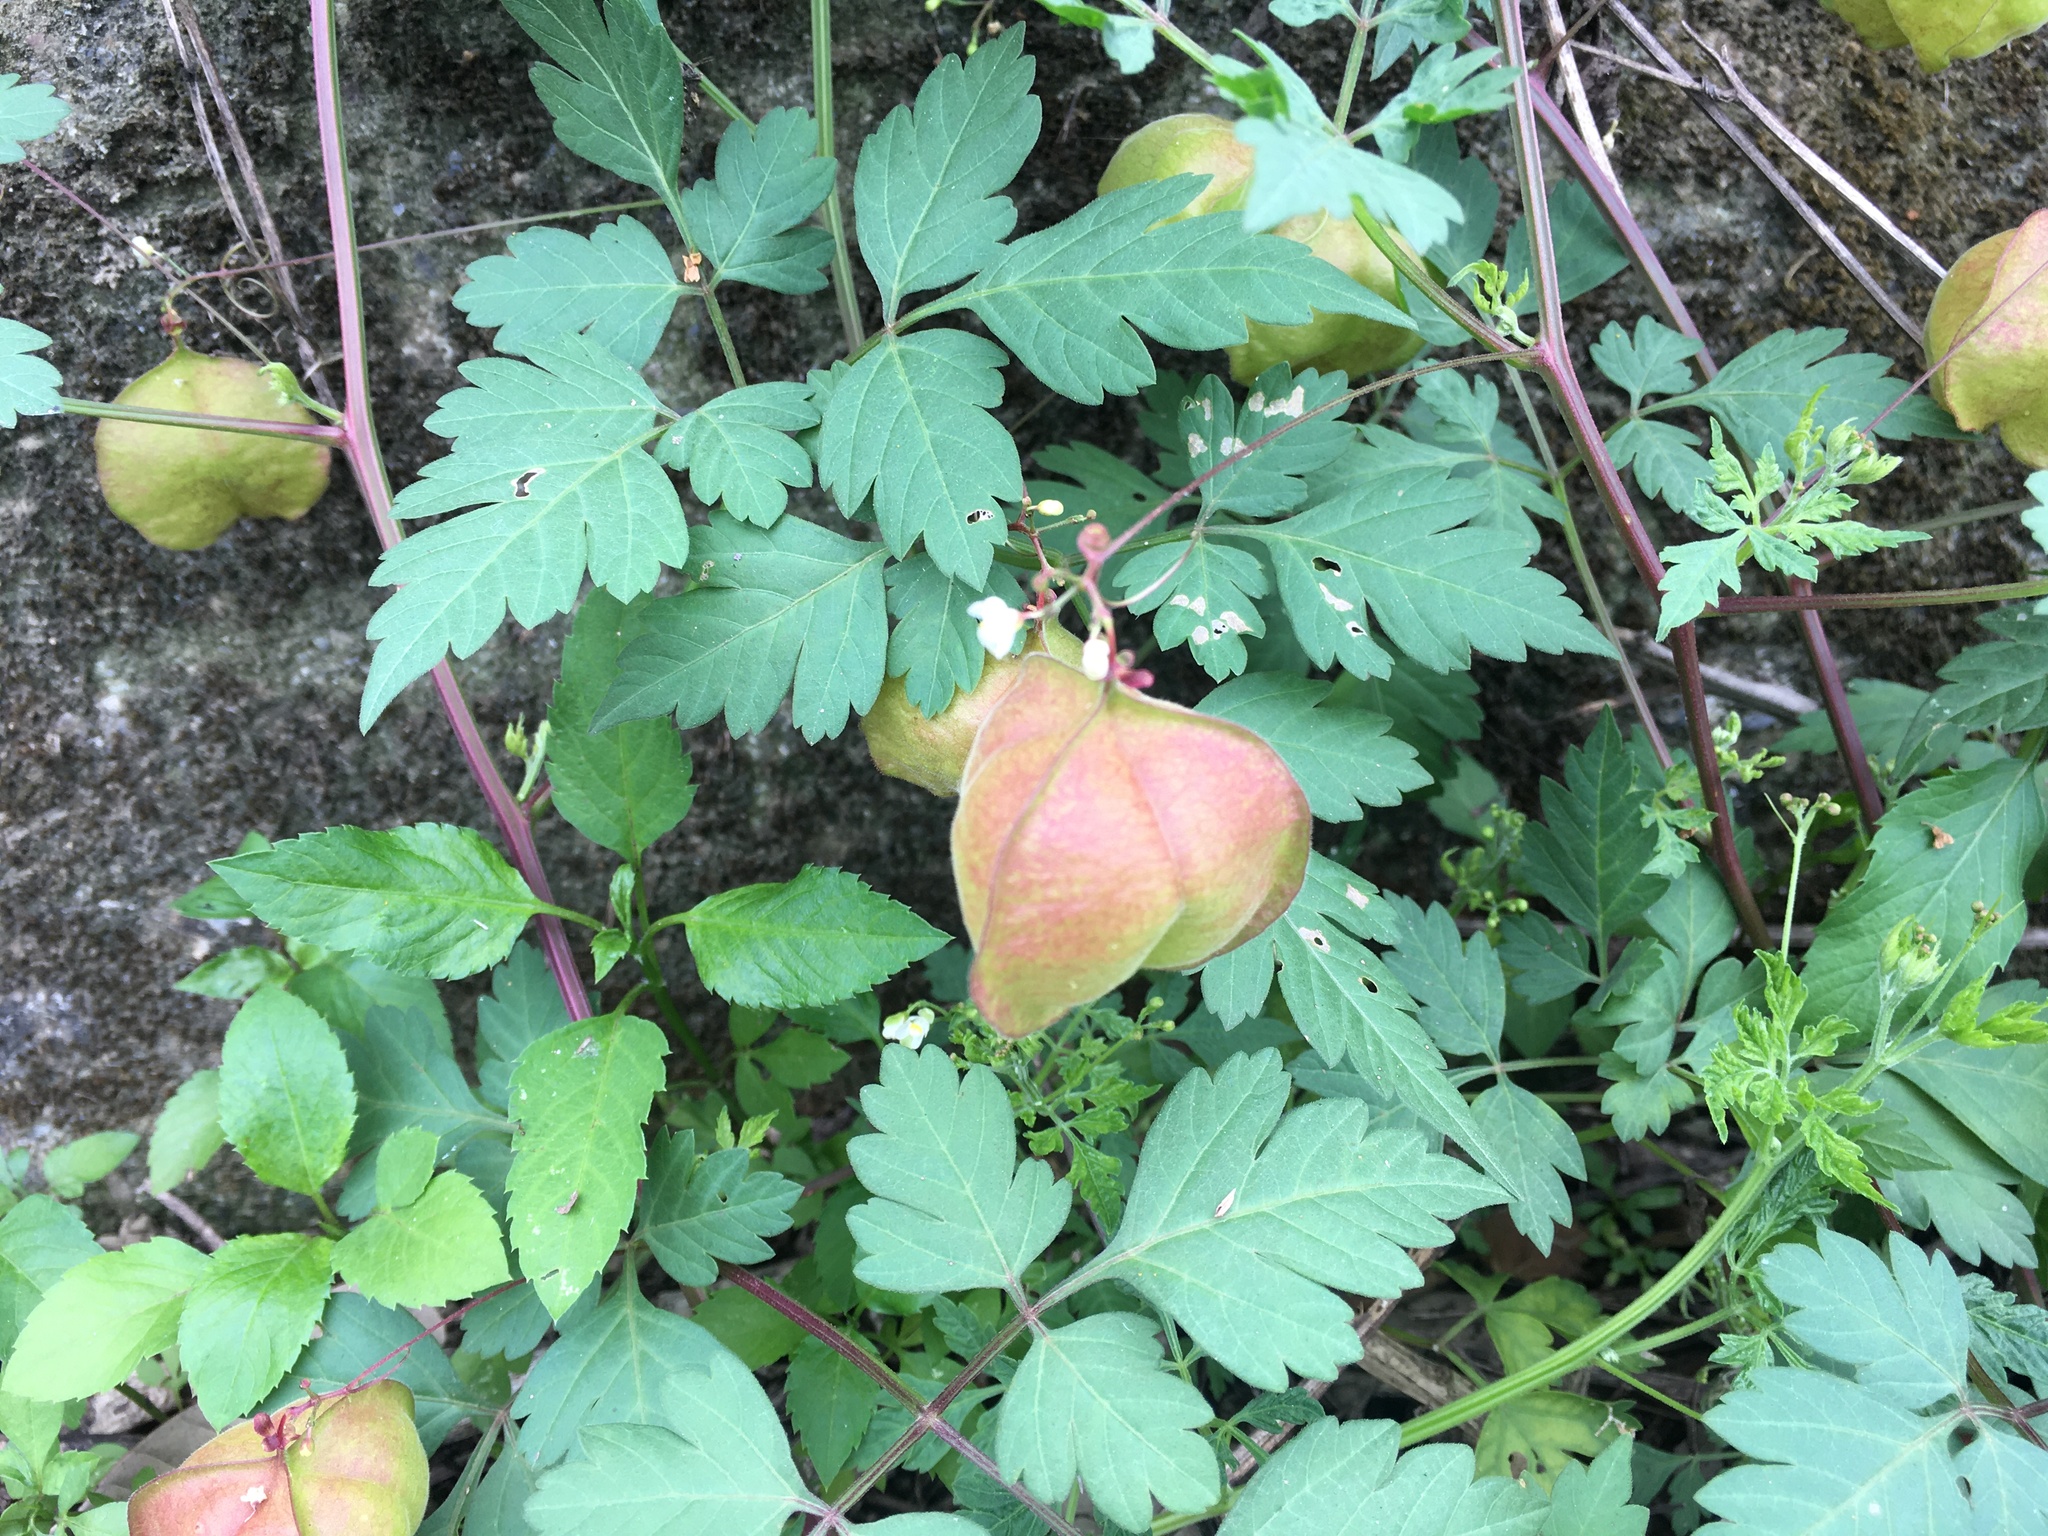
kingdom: Plantae
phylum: Tracheophyta
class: Magnoliopsida
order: Sapindales
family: Sapindaceae
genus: Cardiospermum
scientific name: Cardiospermum halicacabum
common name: Balloon vine
